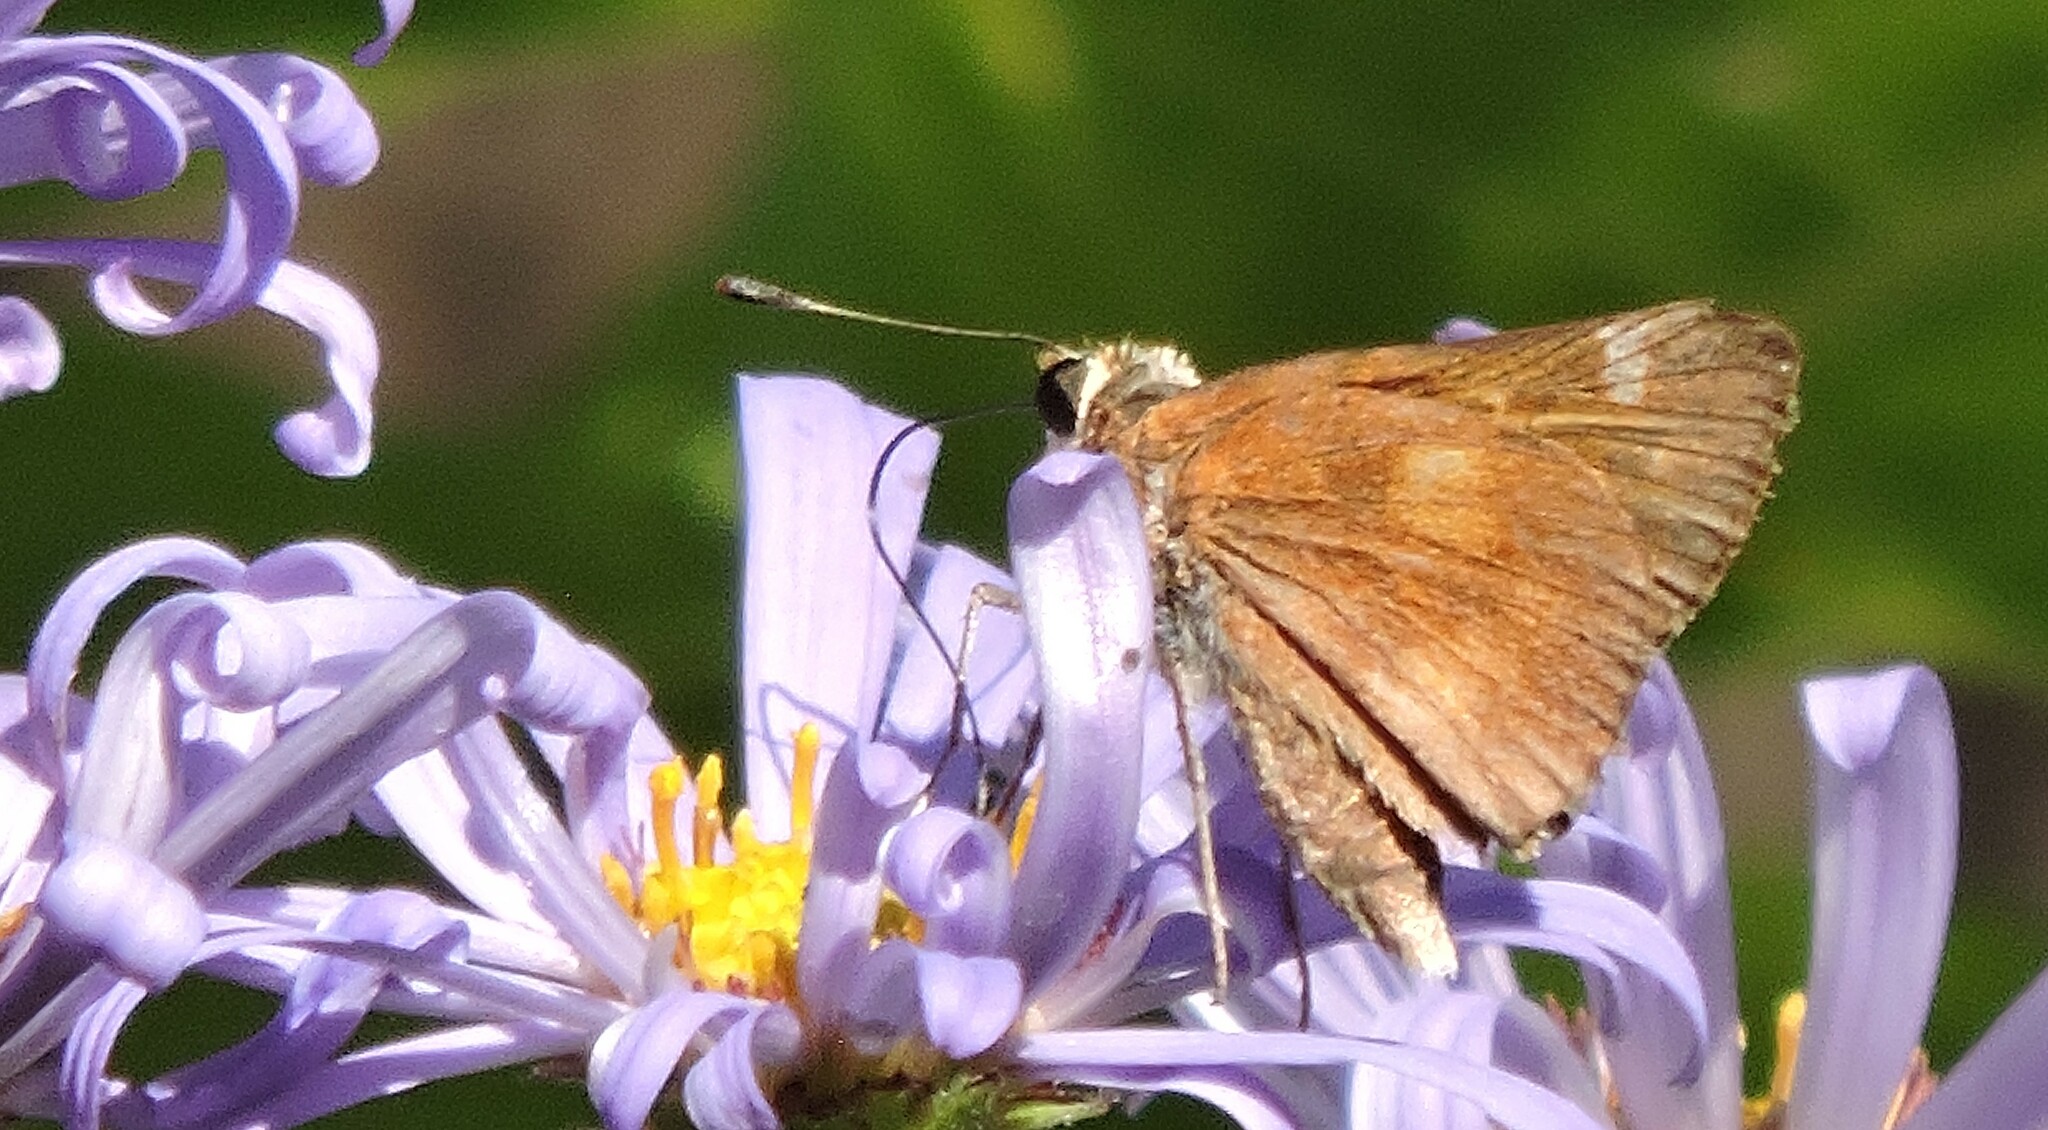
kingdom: Animalia
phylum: Arthropoda
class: Insecta
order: Lepidoptera
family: Hesperiidae
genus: Lon
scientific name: Lon melane
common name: Umber skipper
